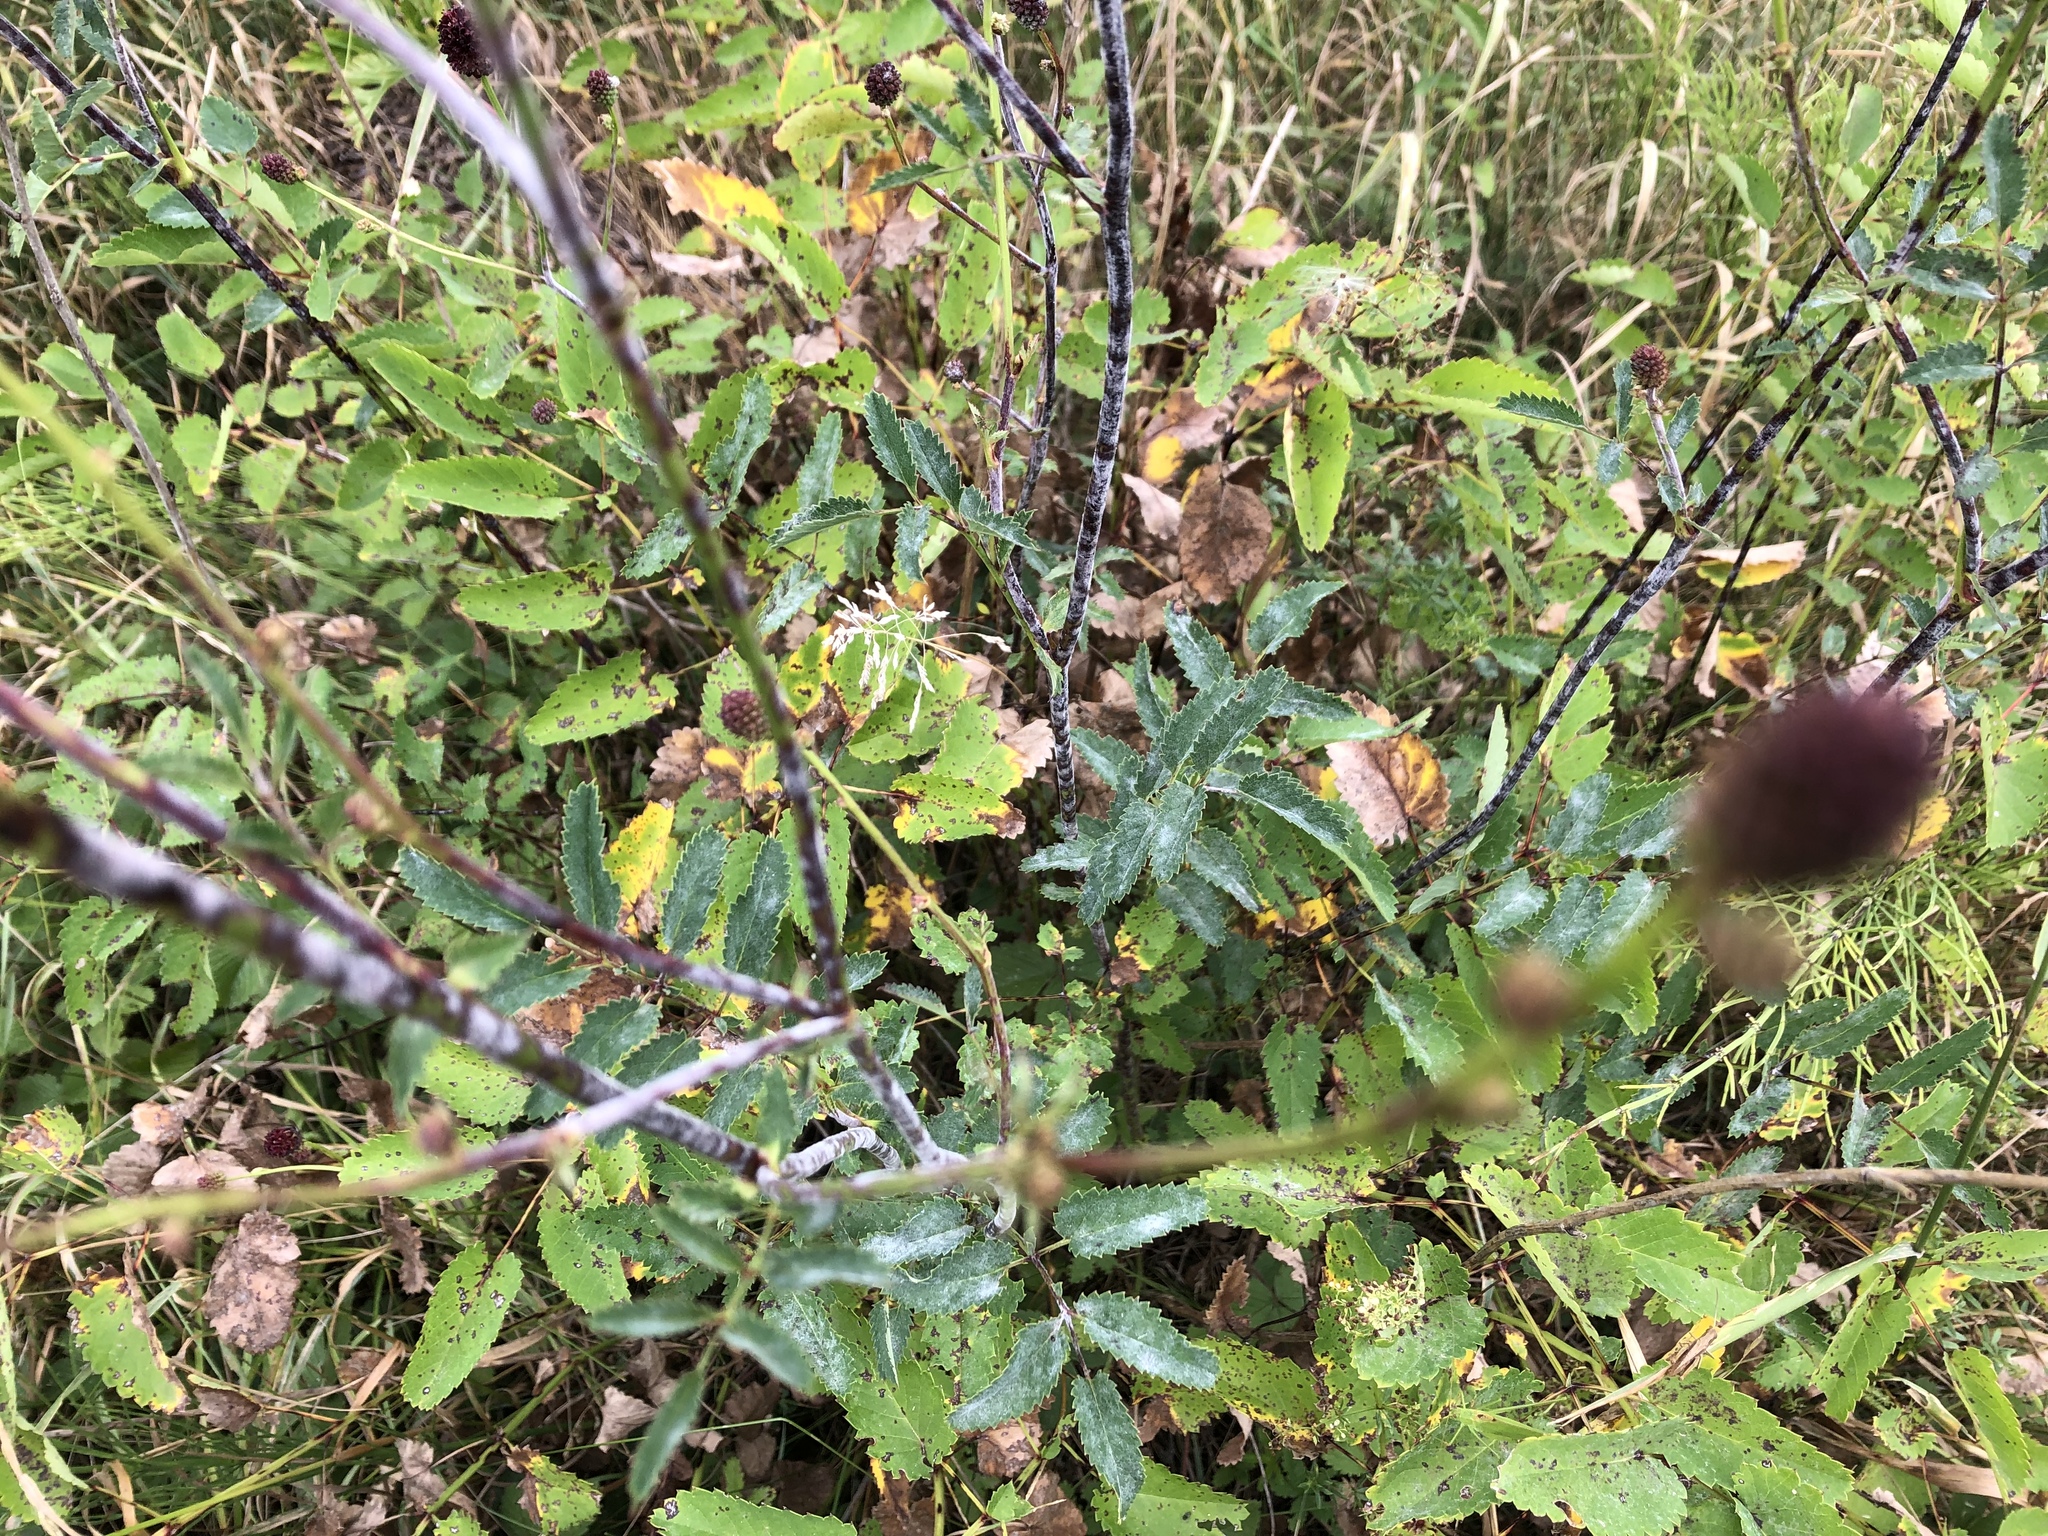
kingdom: Plantae
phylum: Tracheophyta
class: Magnoliopsida
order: Rosales
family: Rosaceae
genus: Sanguisorba
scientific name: Sanguisorba officinalis
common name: Great burnet
